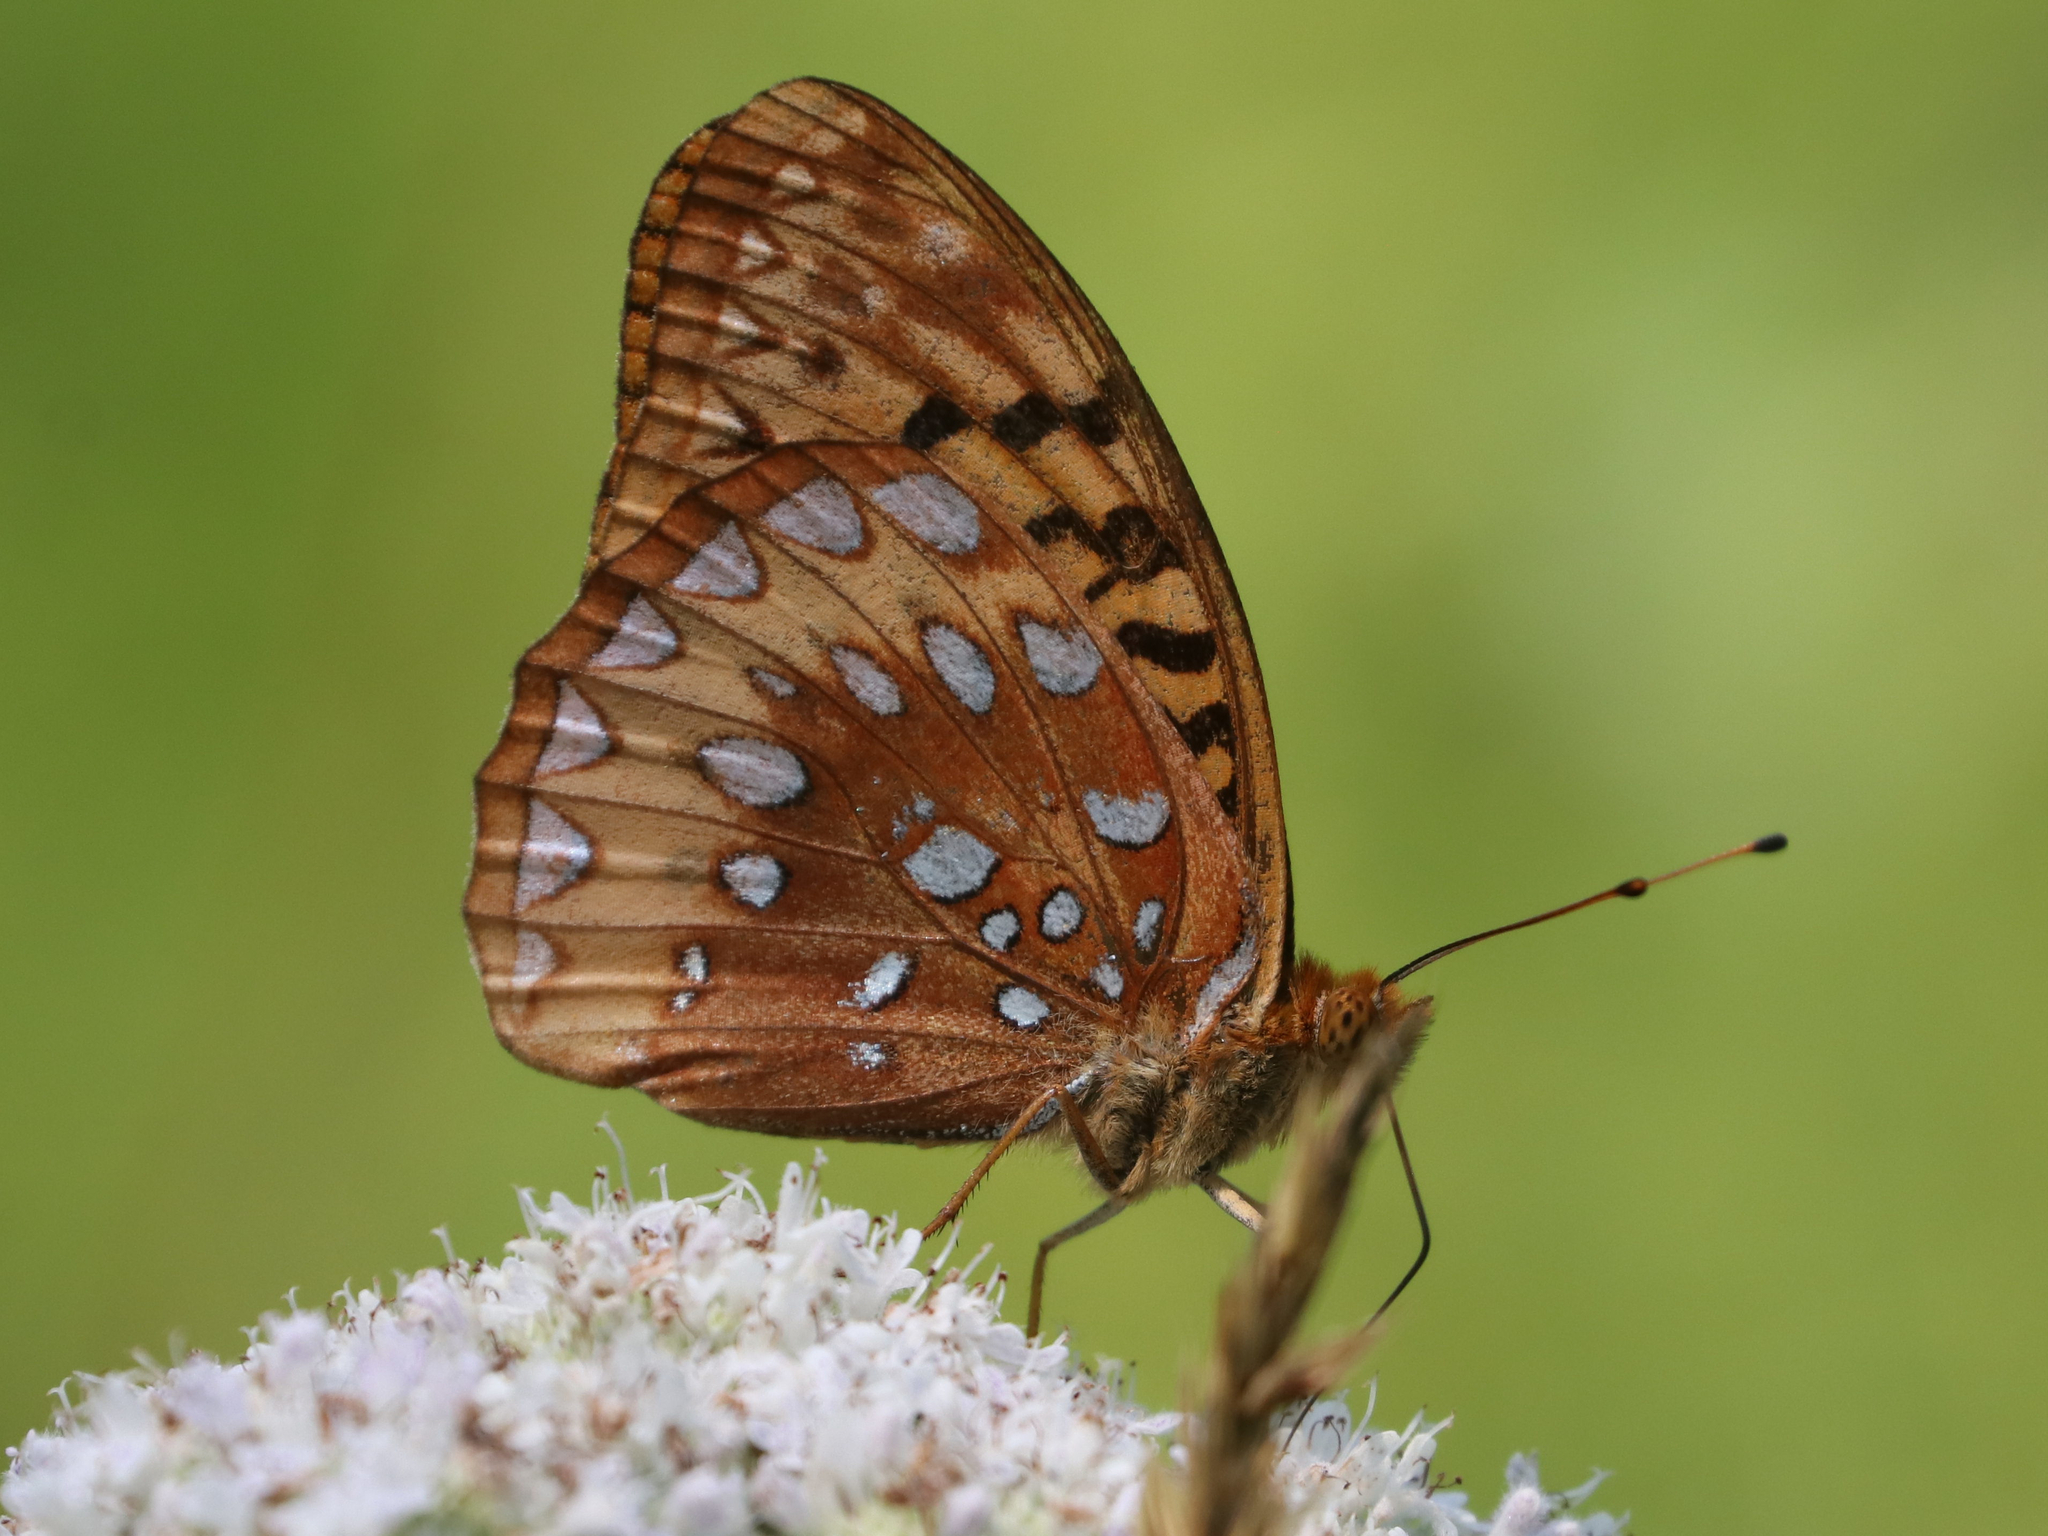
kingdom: Animalia
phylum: Arthropoda
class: Insecta
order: Lepidoptera
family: Nymphalidae
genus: Speyeria
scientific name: Speyeria cybele
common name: Great spangled fritillary
